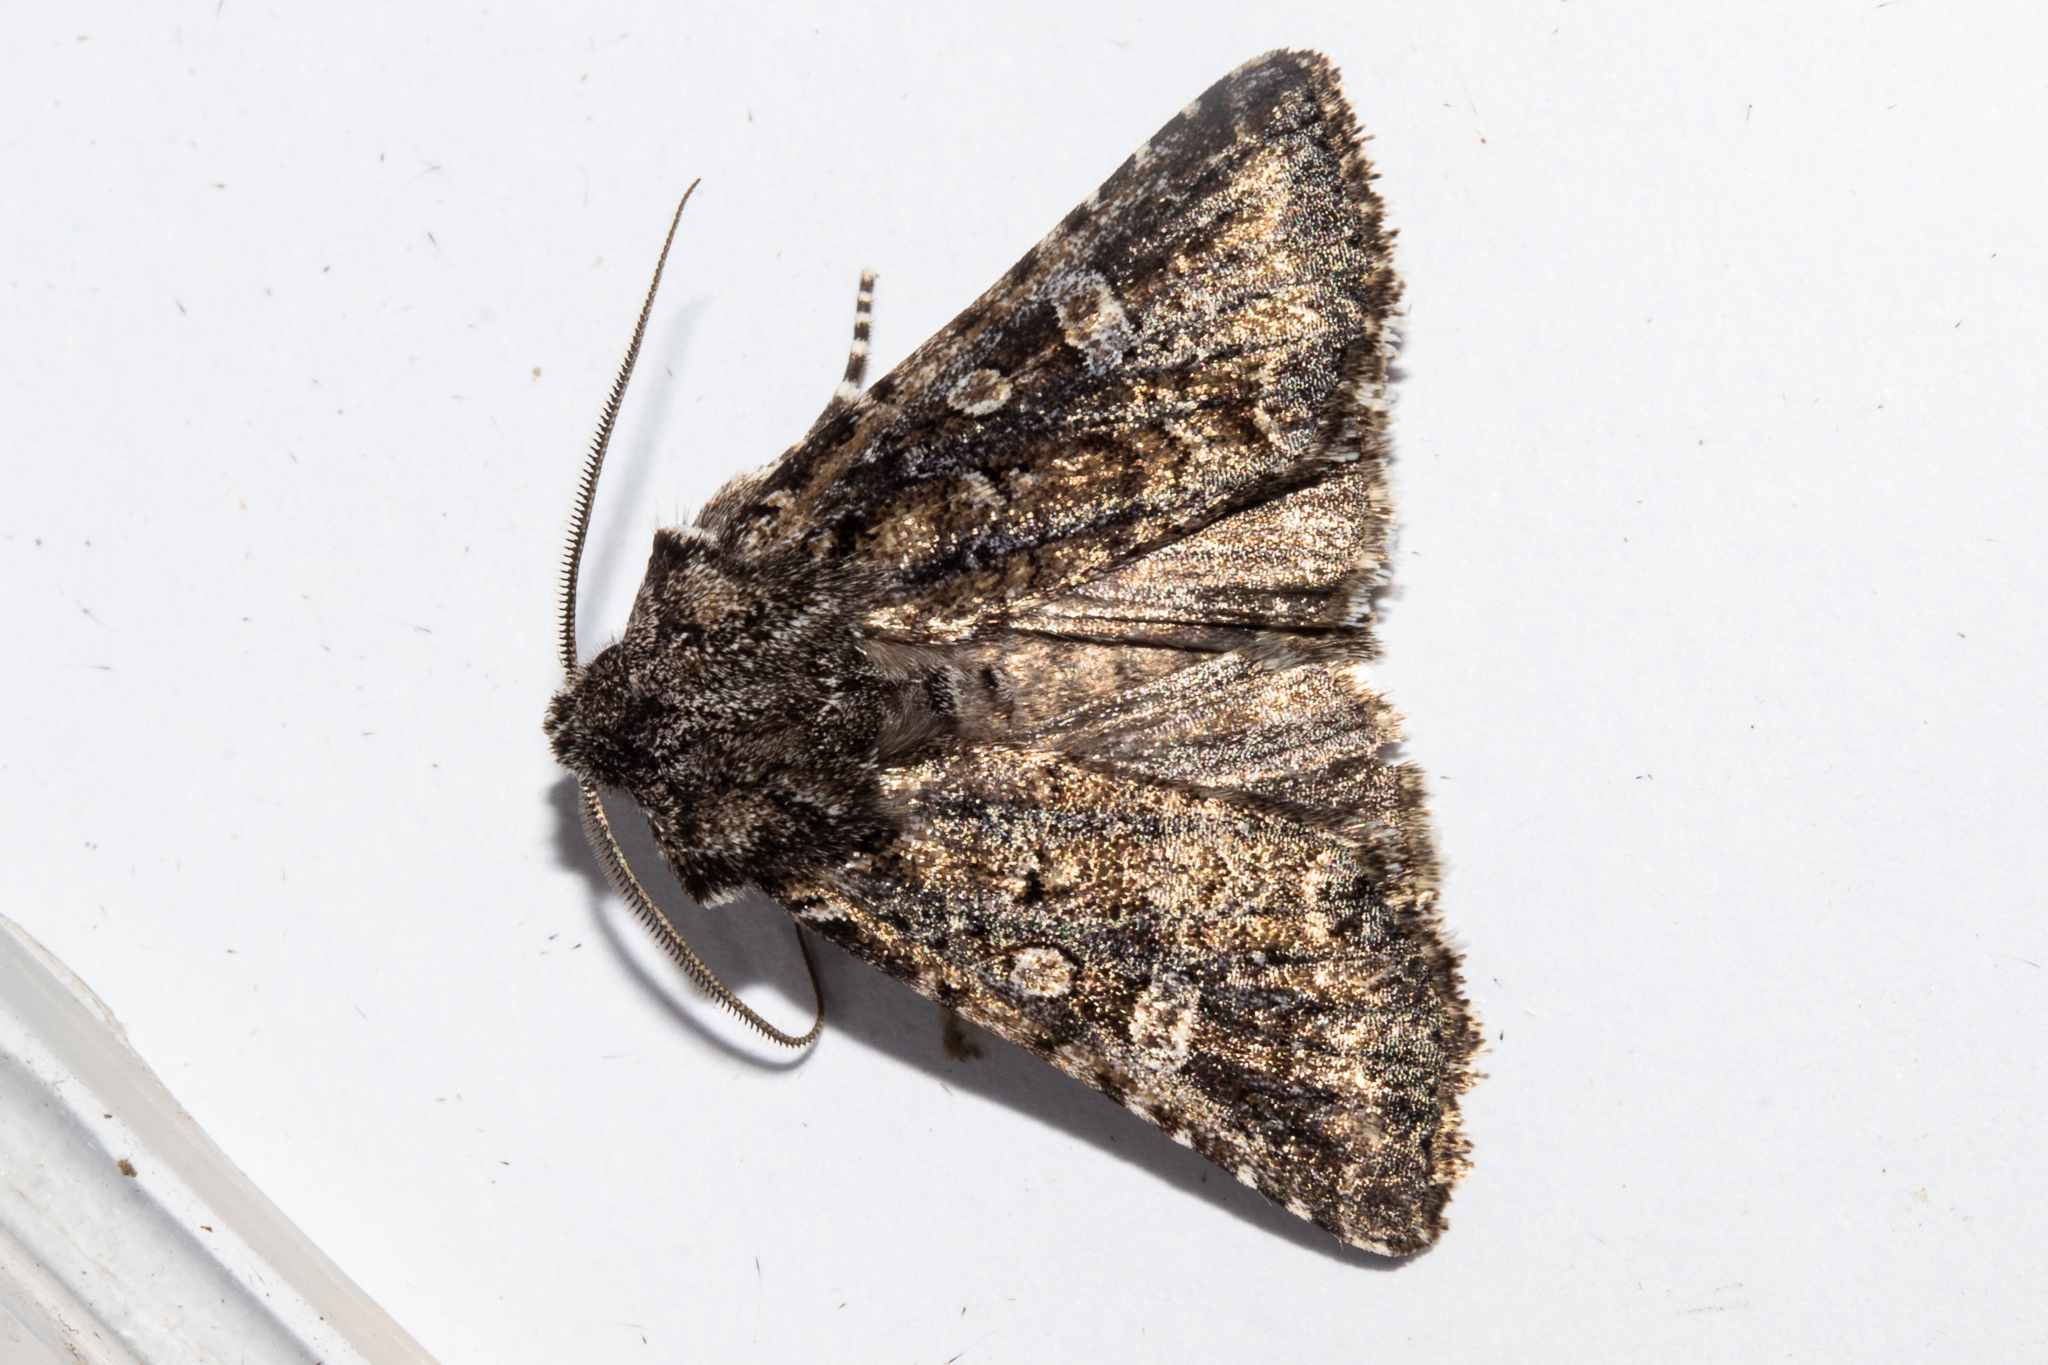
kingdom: Animalia
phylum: Arthropoda
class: Insecta
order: Lepidoptera
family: Noctuidae
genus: Ichneutica
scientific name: Ichneutica lithias
